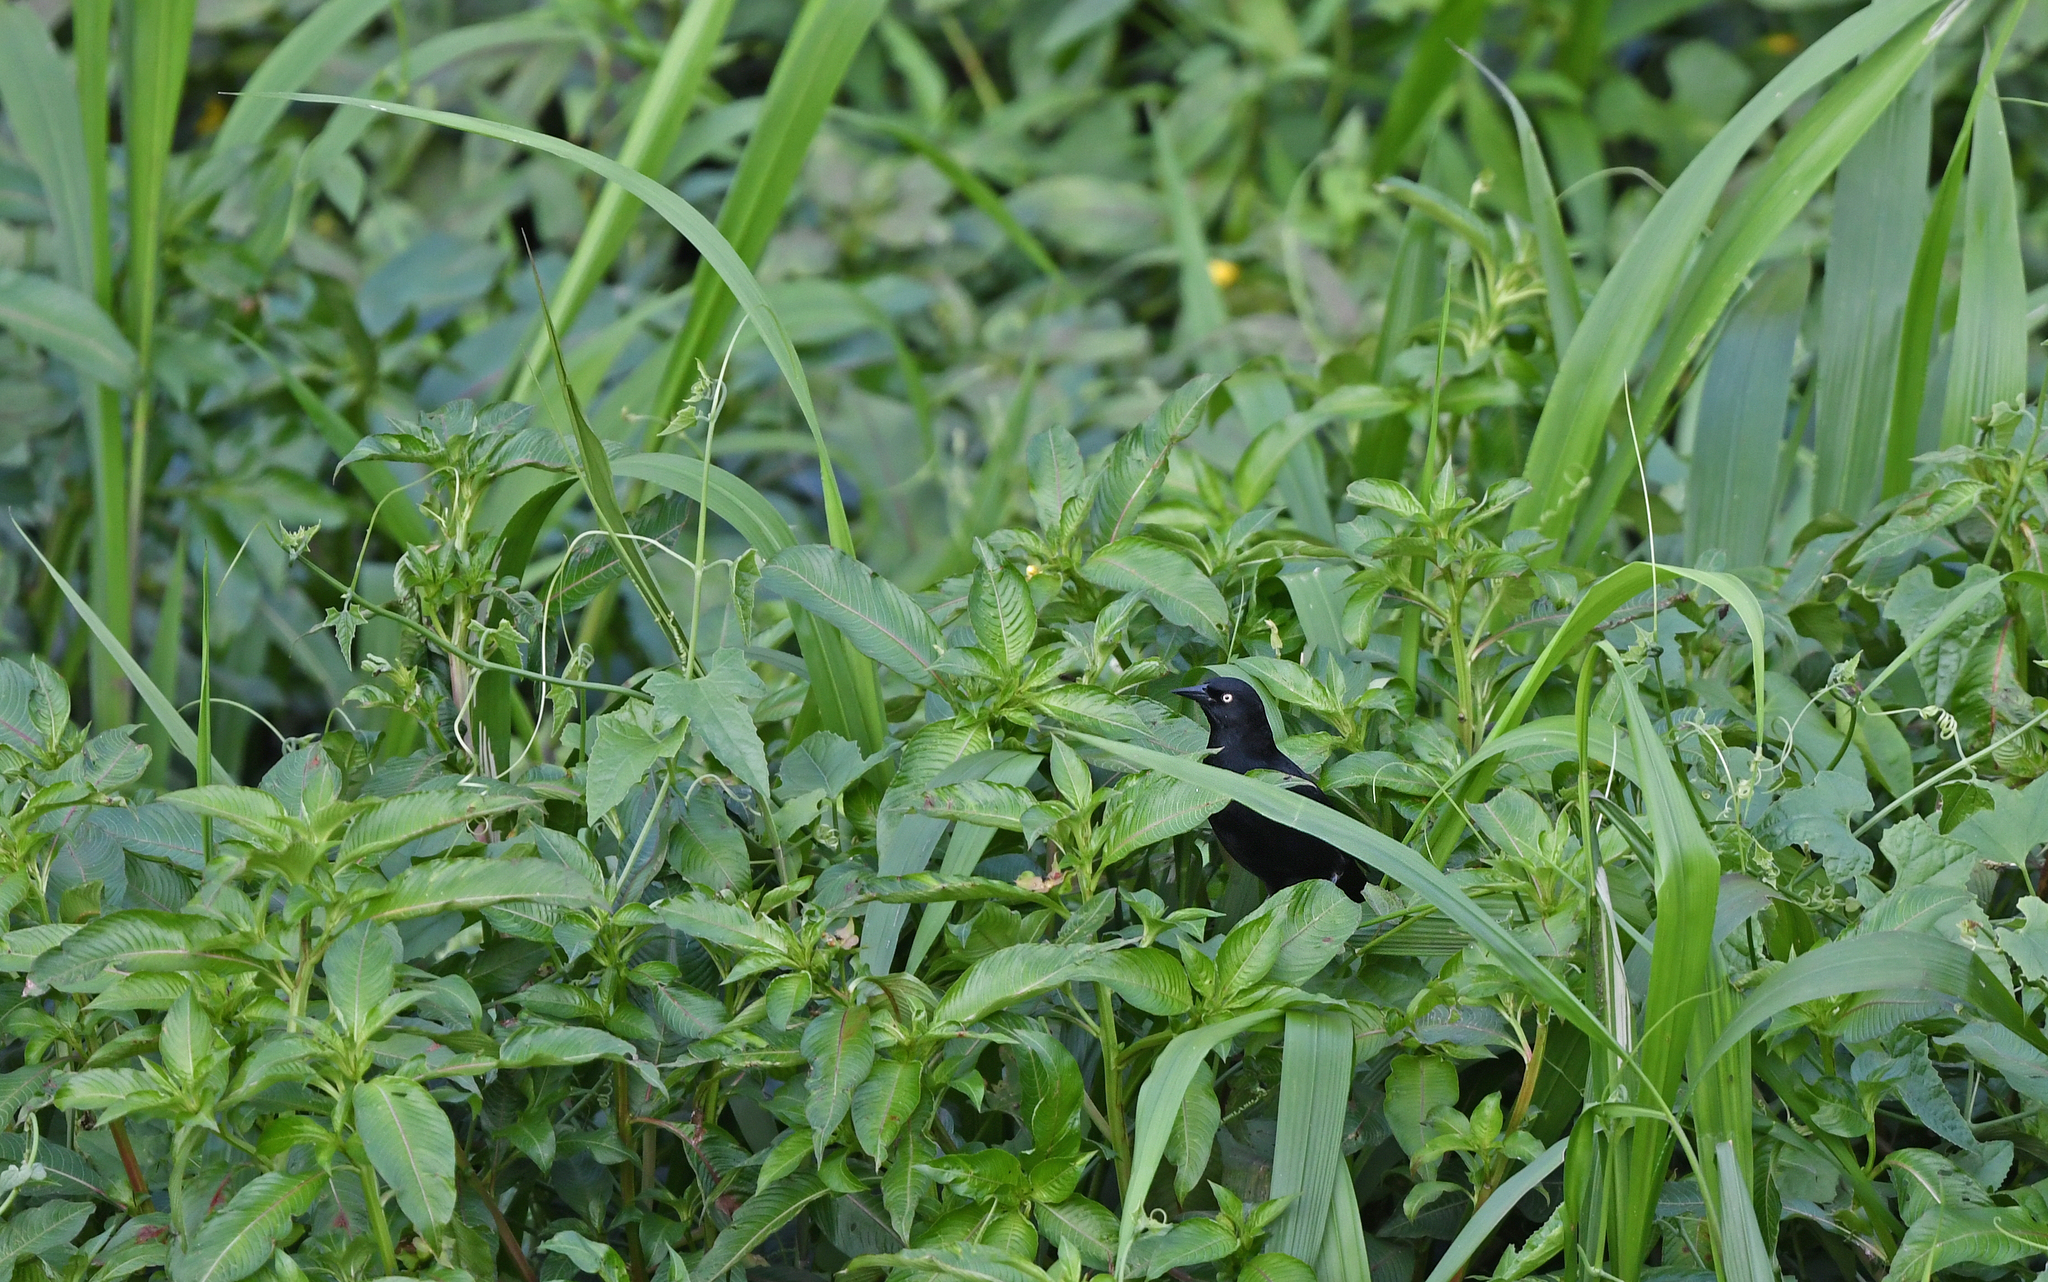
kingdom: Animalia
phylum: Chordata
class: Aves
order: Passeriformes
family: Icteridae
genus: Agelasticus
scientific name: Agelasticus xanthophthalmus
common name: Pale-eyed blackbird
